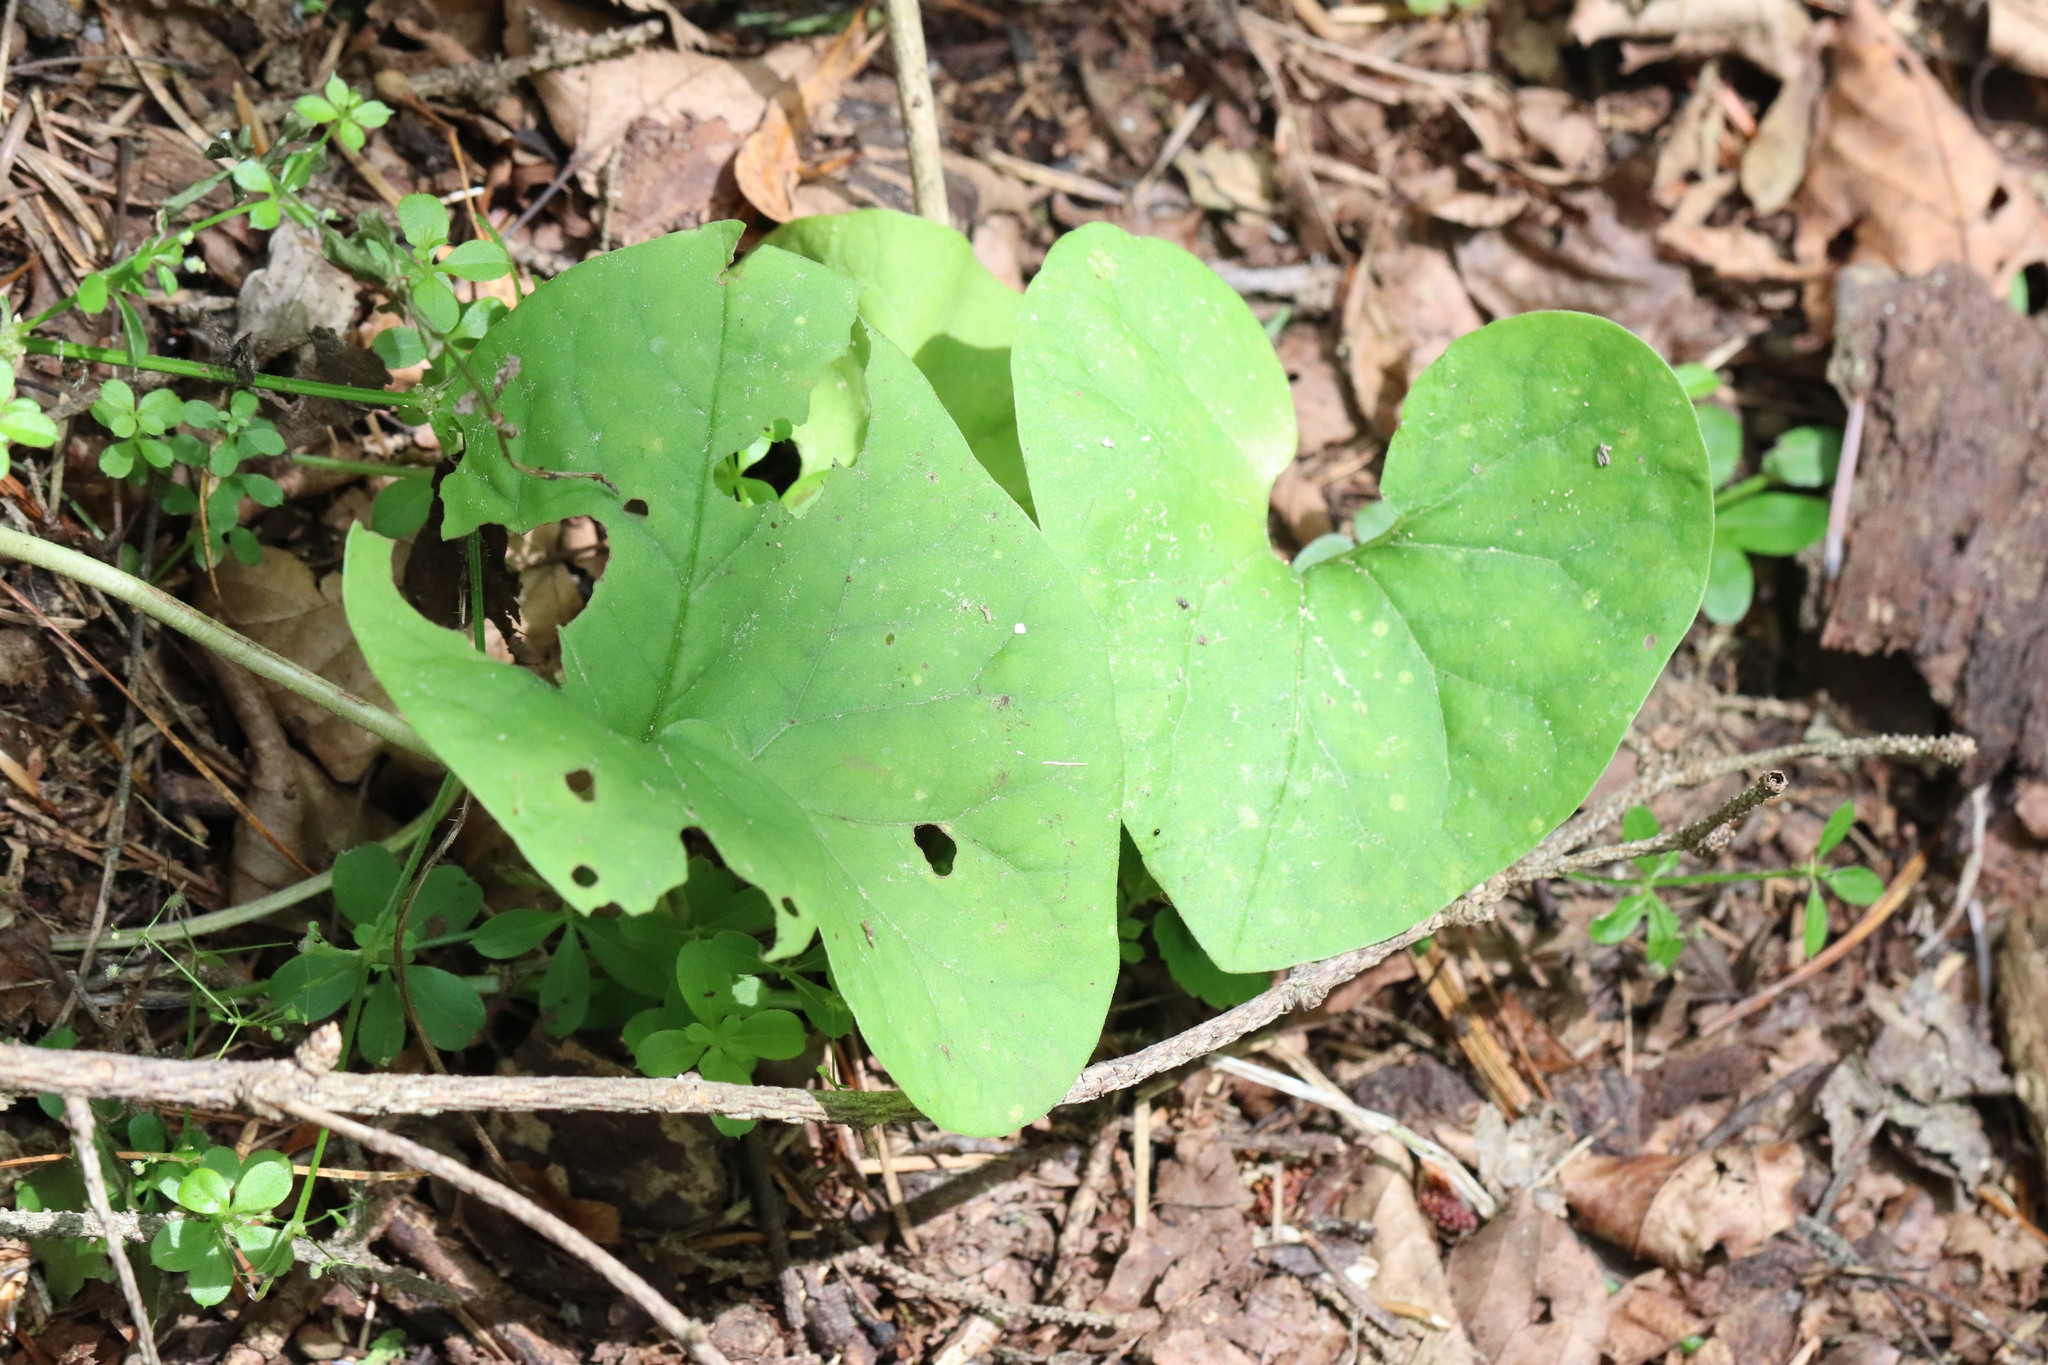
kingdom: Plantae
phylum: Tracheophyta
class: Magnoliopsida
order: Piperales
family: Aristolochiaceae
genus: Asarum
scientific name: Asarum sieboldii
